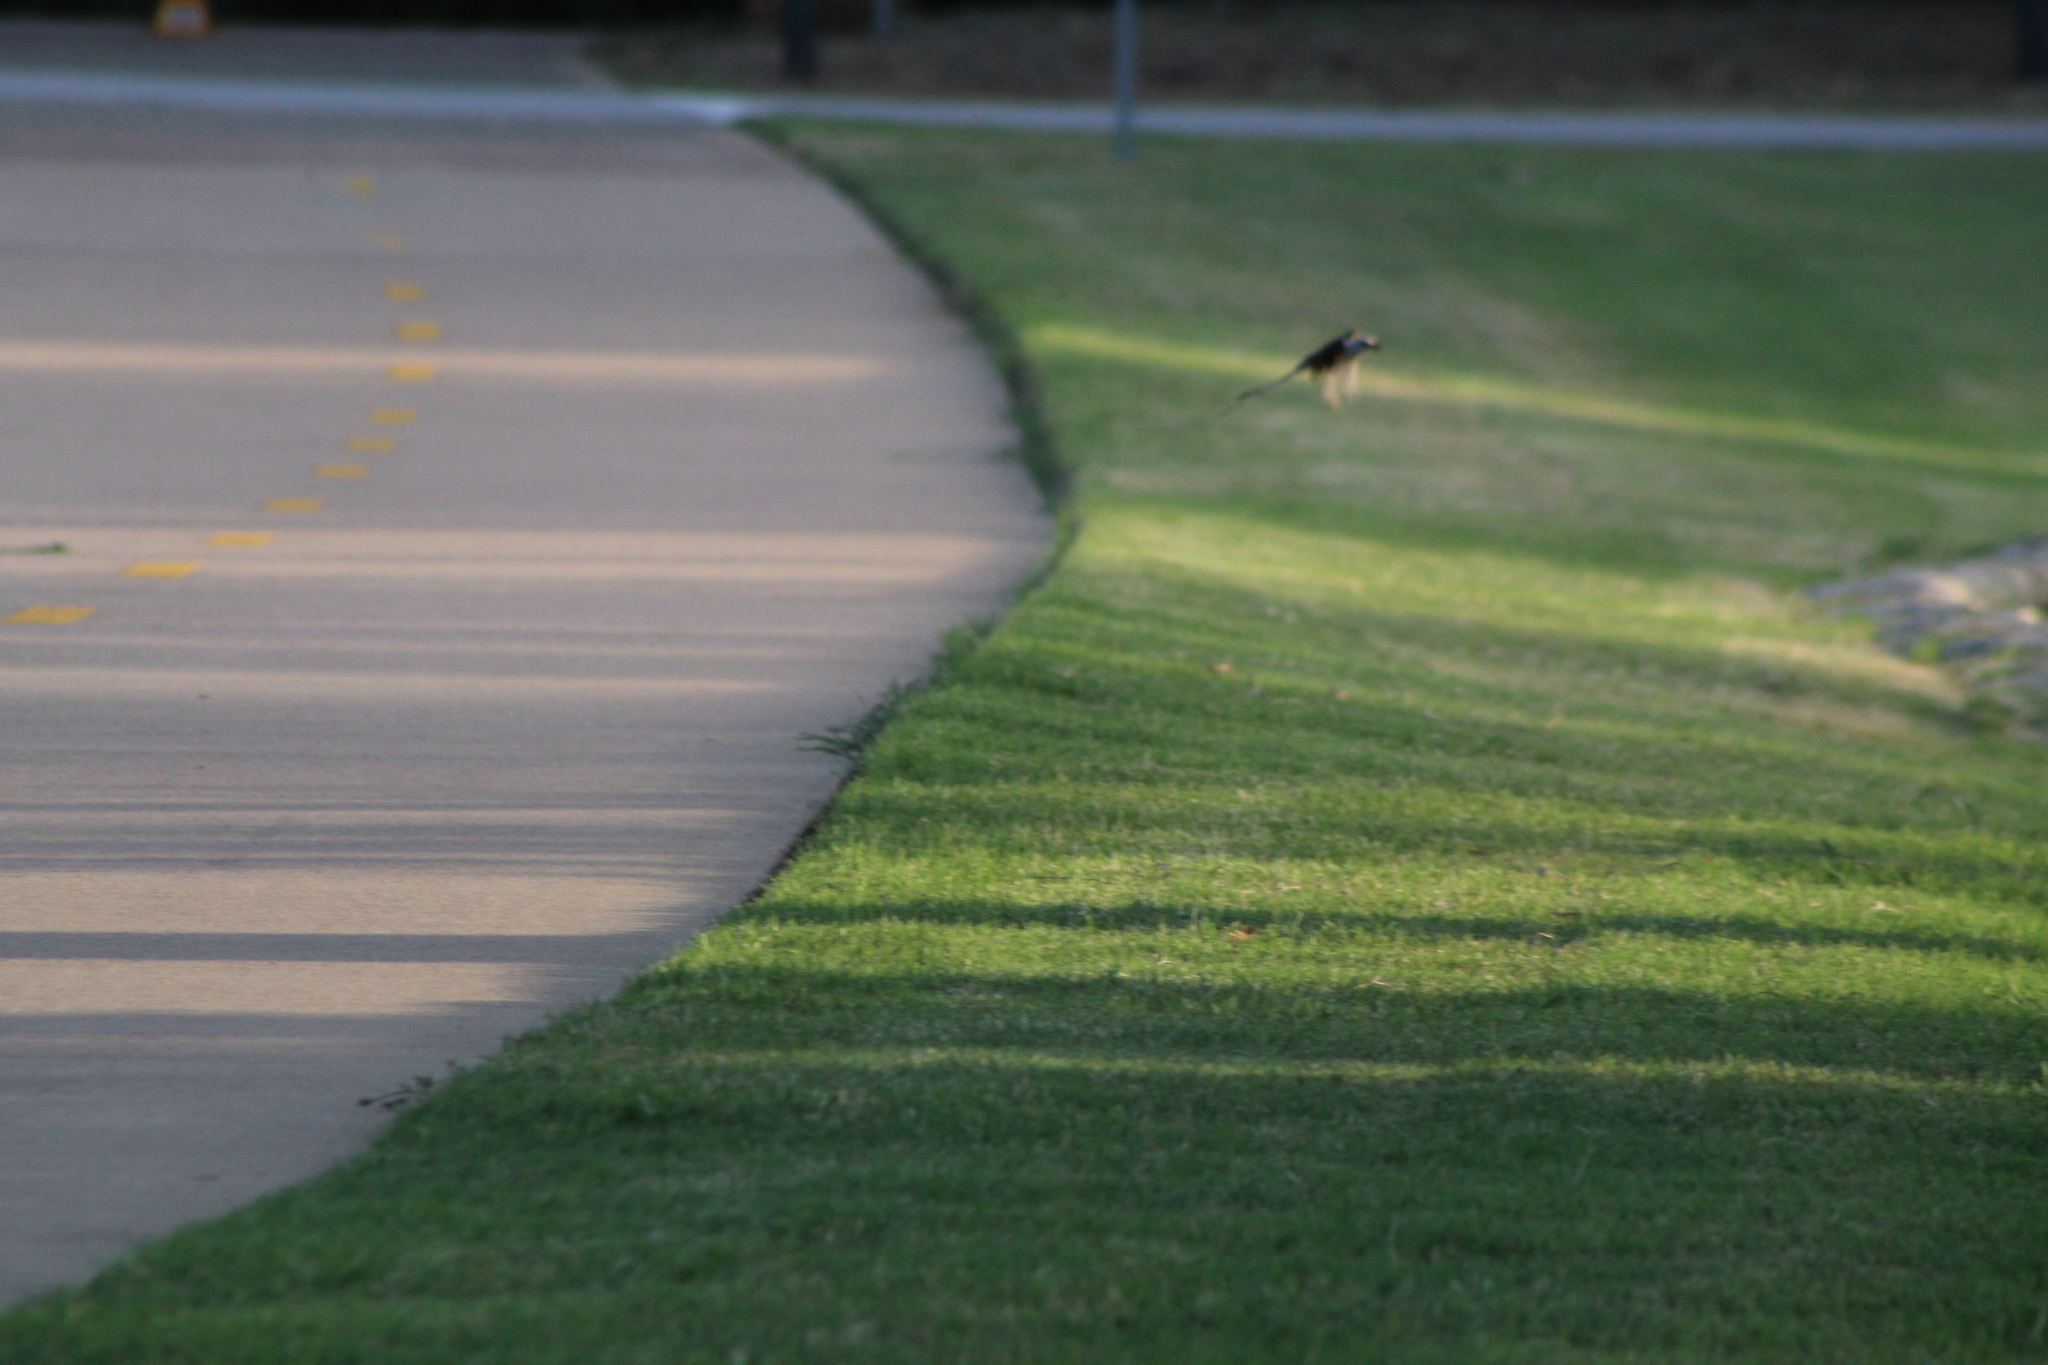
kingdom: Animalia
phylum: Chordata
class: Aves
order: Passeriformes
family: Tyrannidae
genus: Tyrannus
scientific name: Tyrannus forficatus
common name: Scissor-tailed flycatcher
